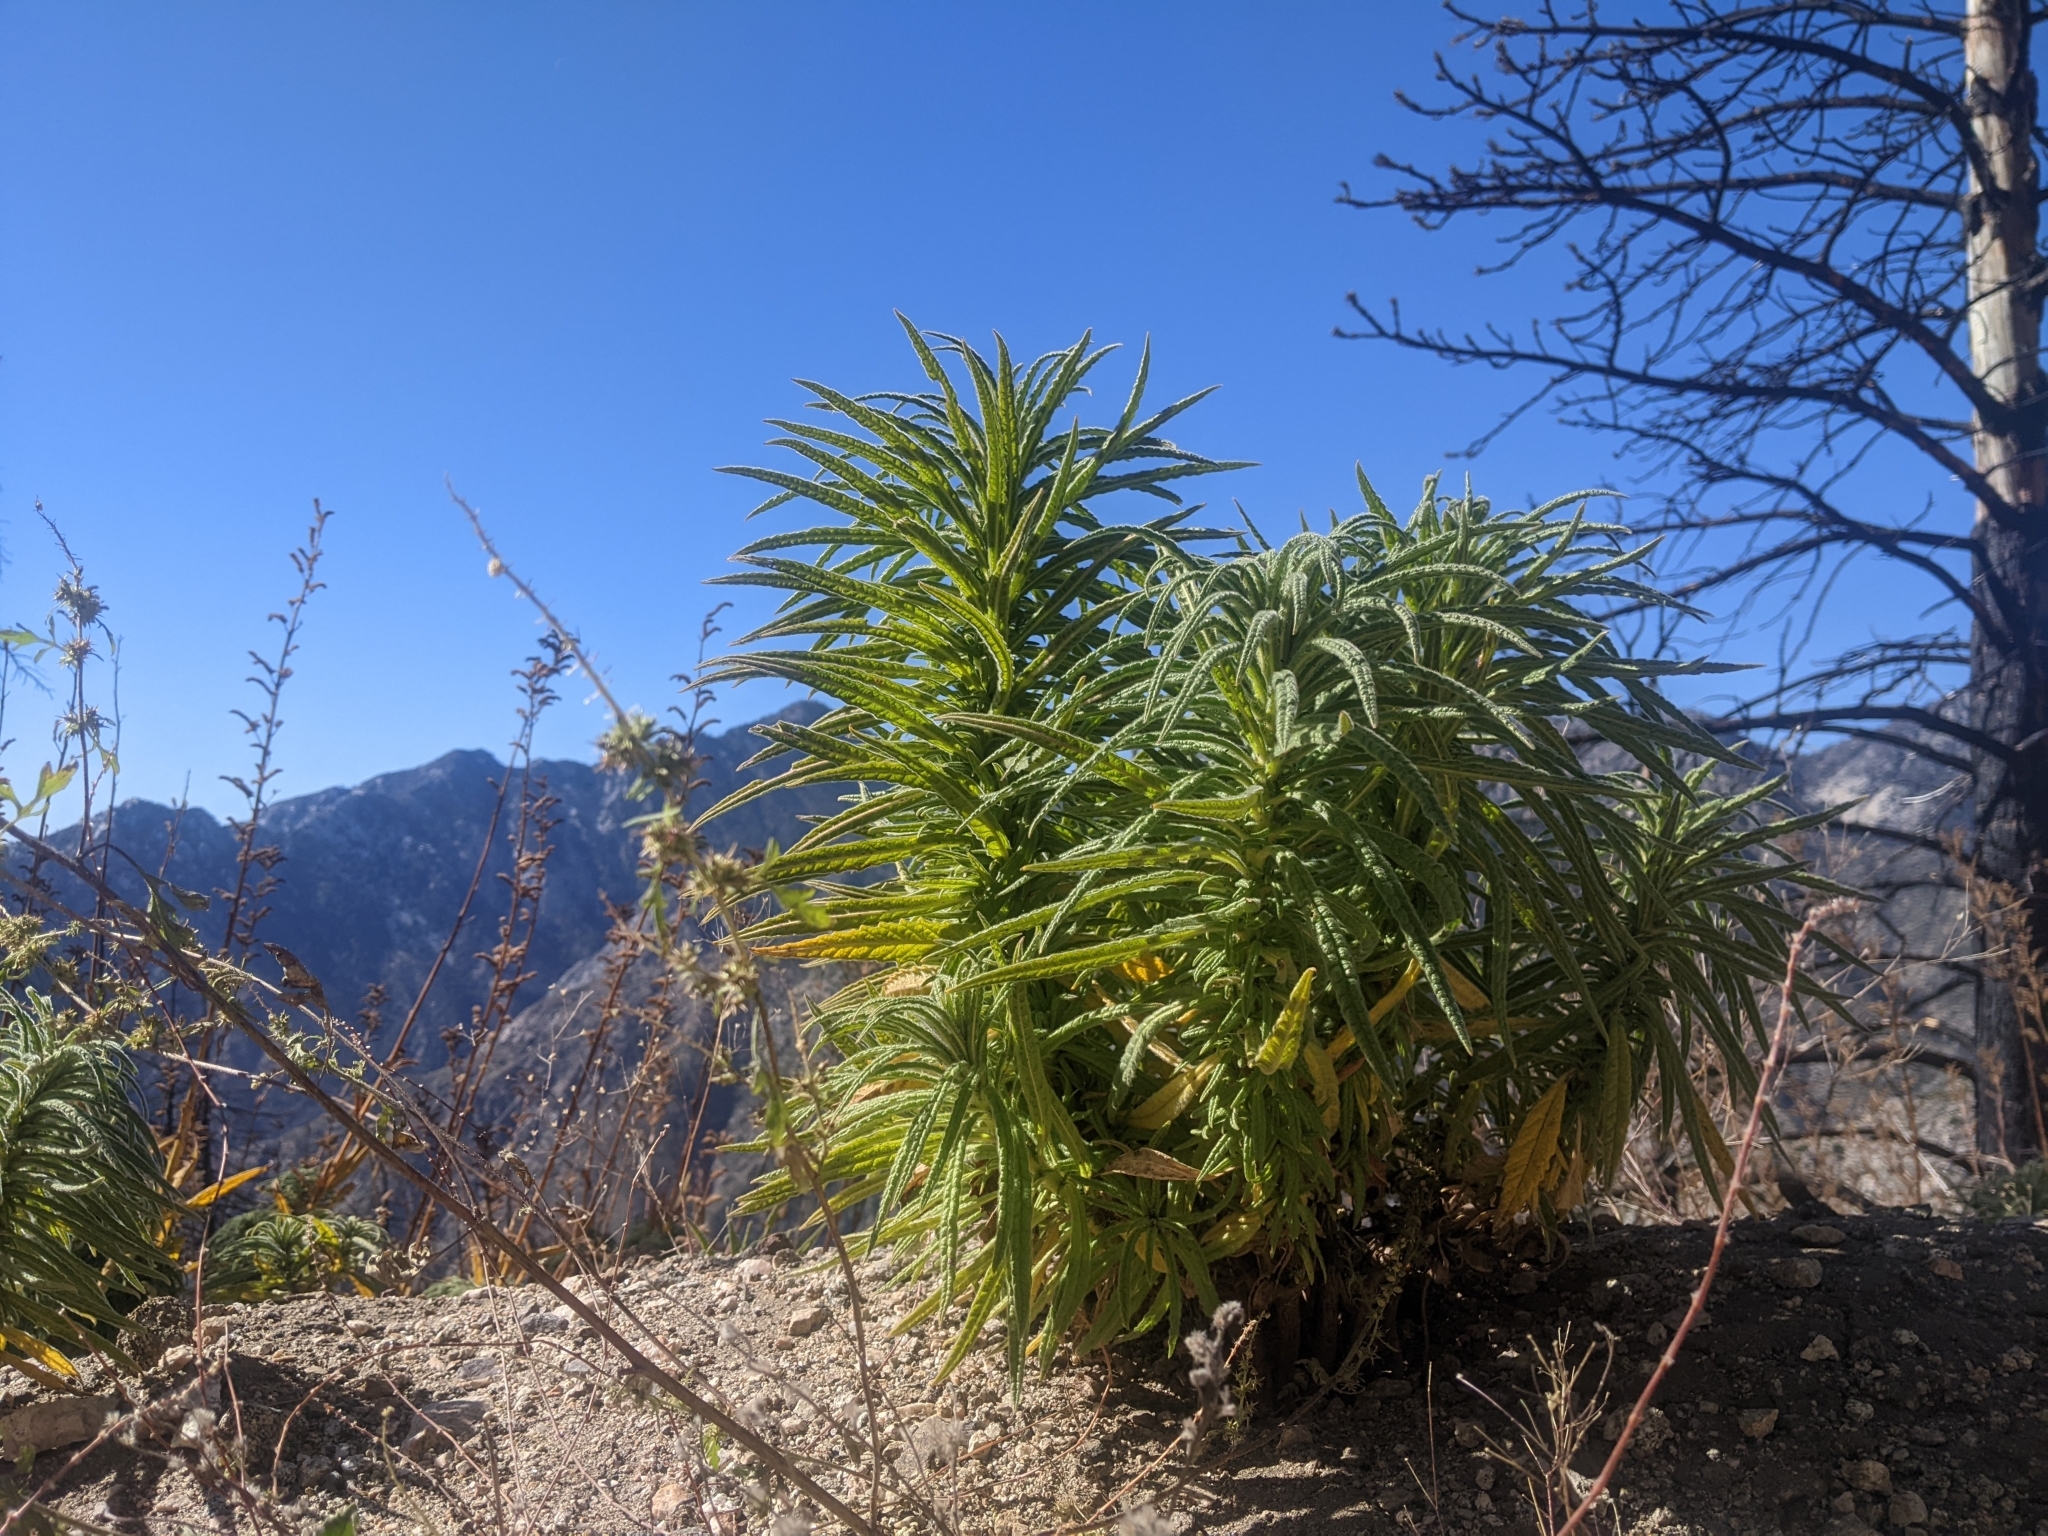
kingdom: Plantae
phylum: Tracheophyta
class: Magnoliopsida
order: Boraginales
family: Namaceae
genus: Turricula
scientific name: Turricula parryi
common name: Poodle-dog-bush
